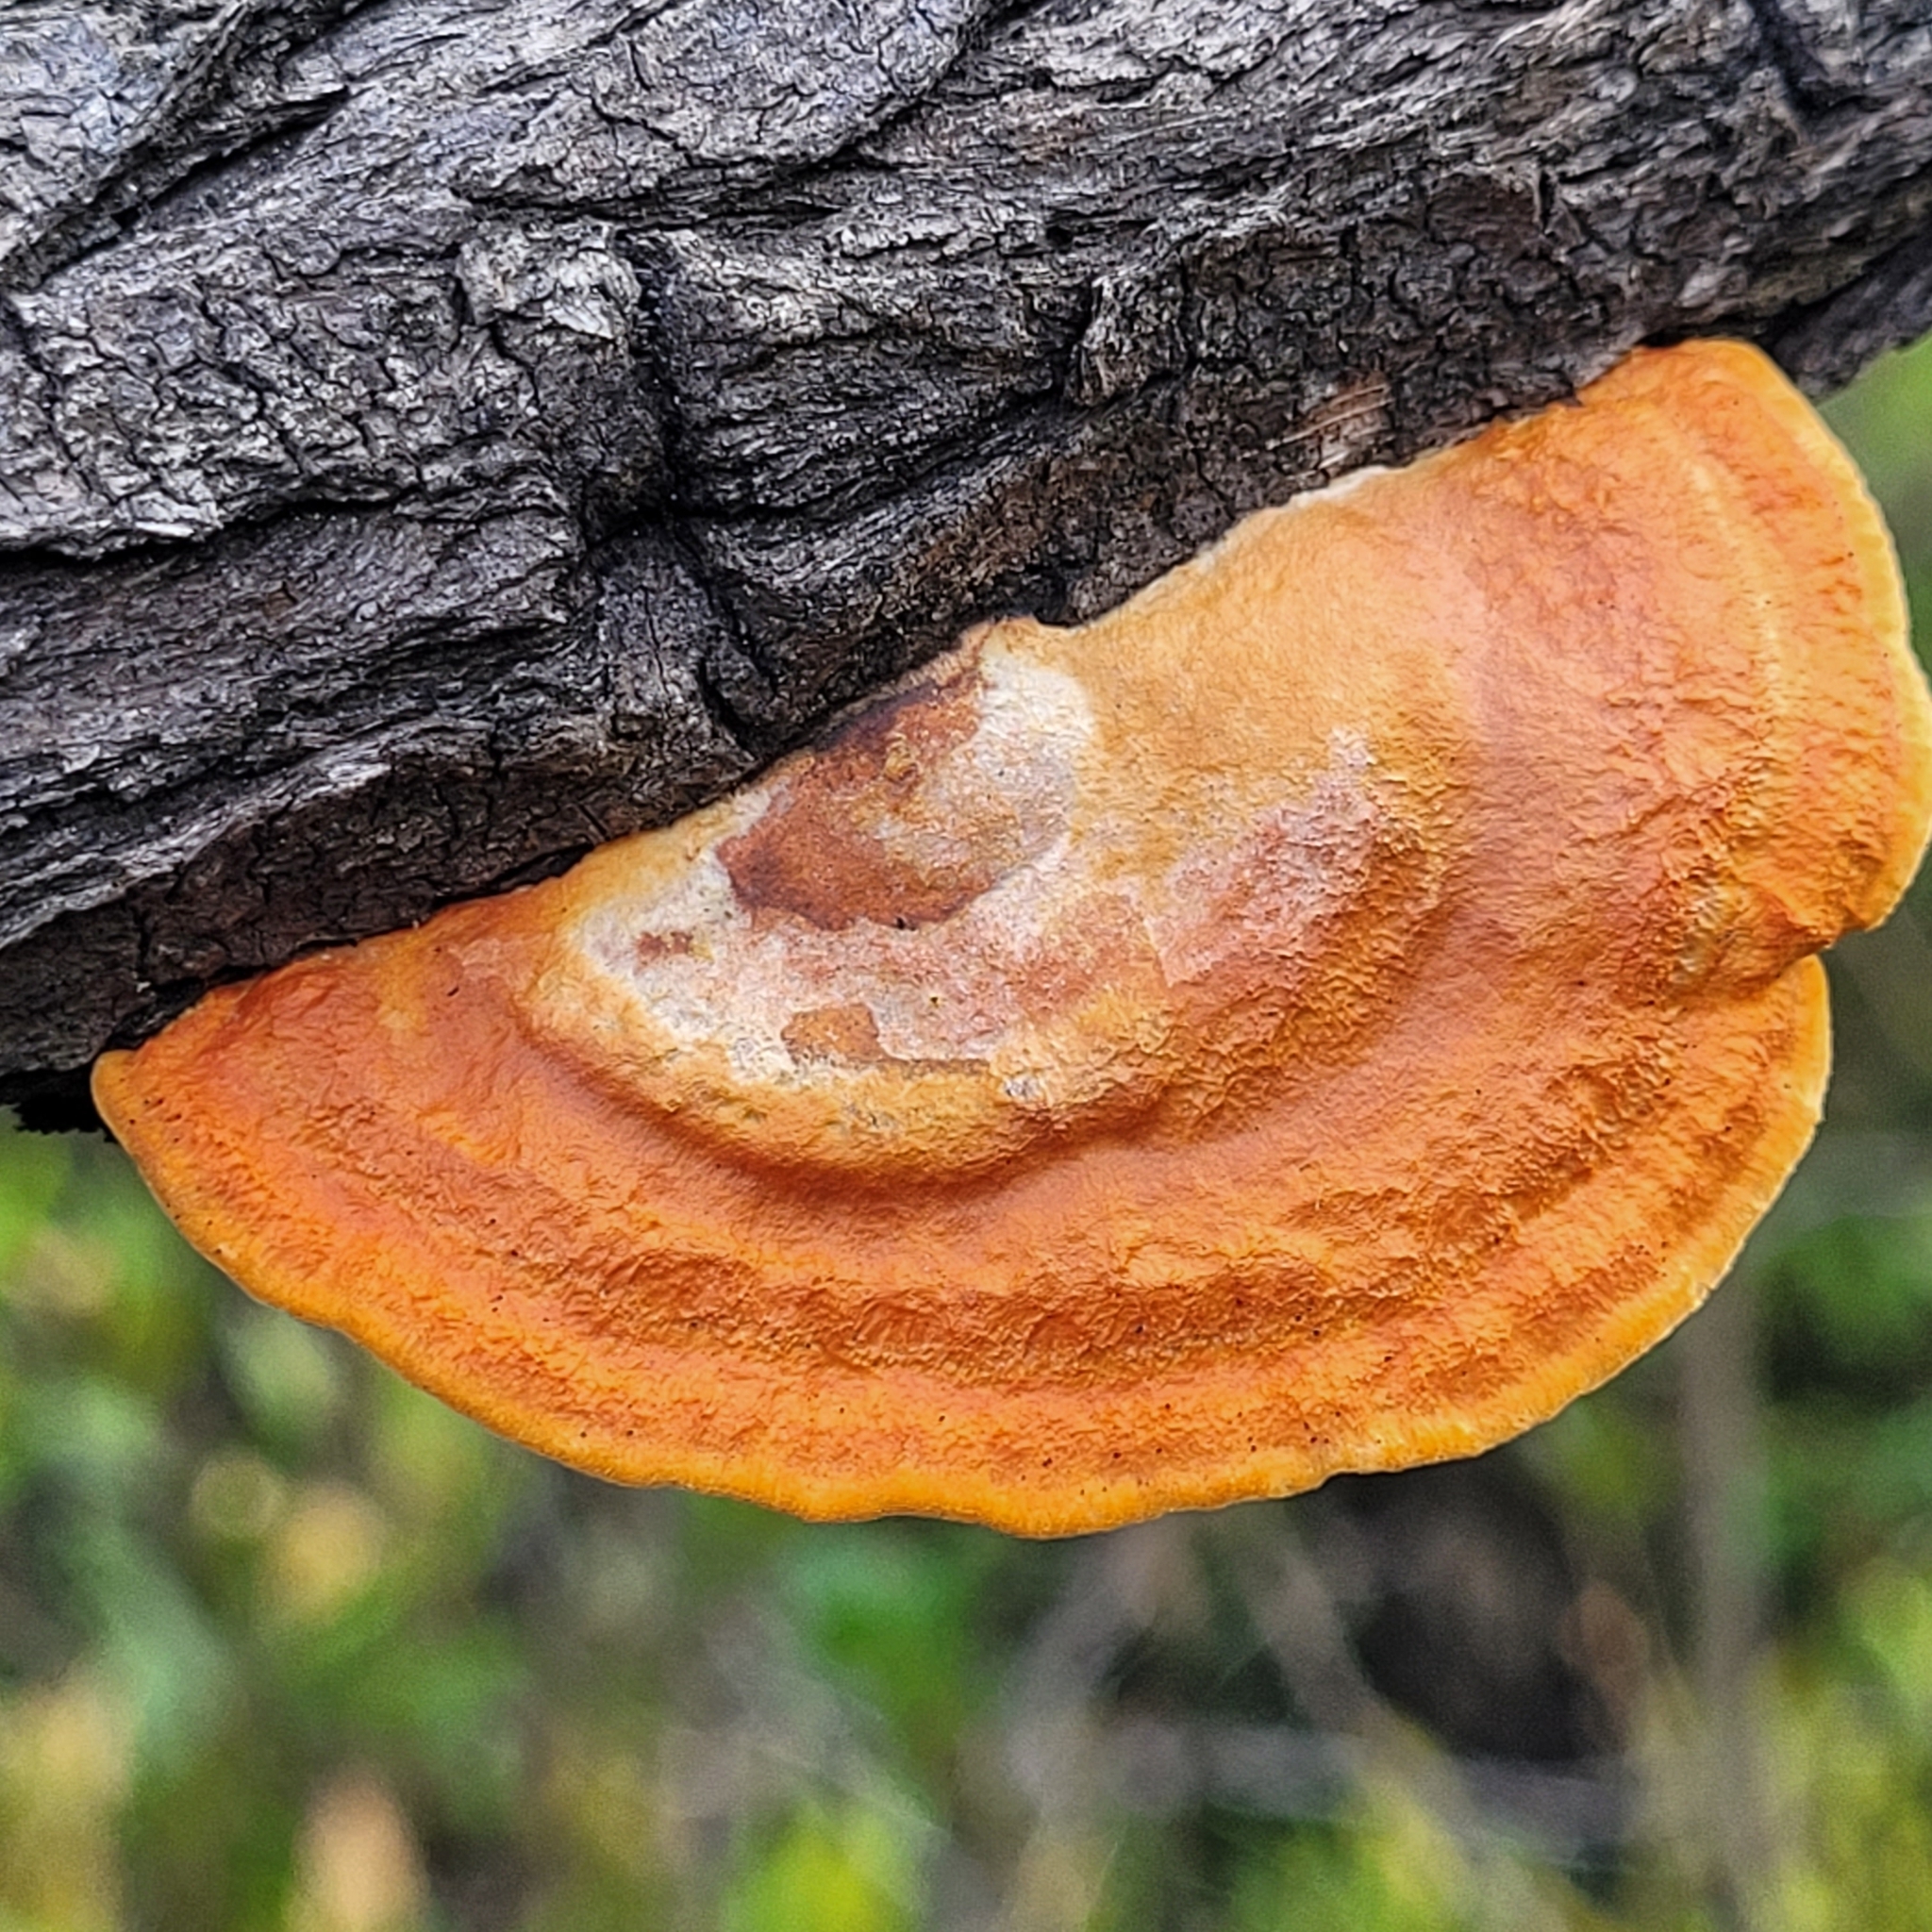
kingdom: Fungi
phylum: Basidiomycota
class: Agaricomycetes
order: Polyporales
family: Polyporaceae
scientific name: Polyporaceae
